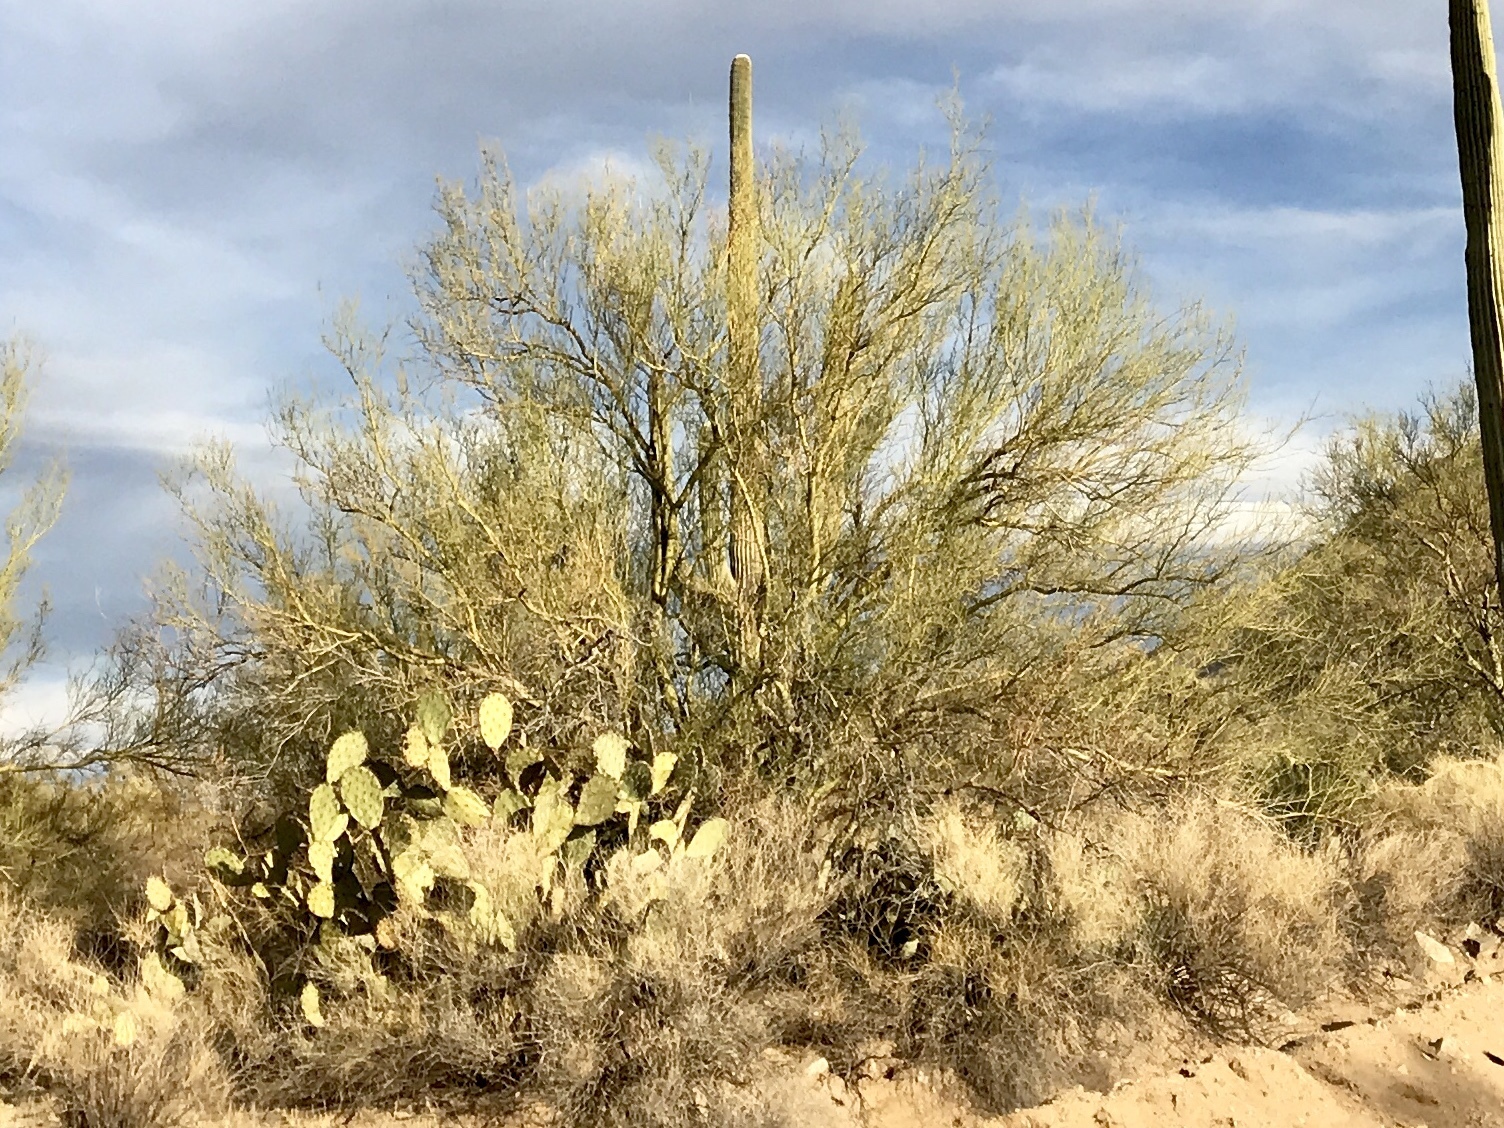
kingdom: Plantae
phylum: Tracheophyta
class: Magnoliopsida
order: Fabales
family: Fabaceae
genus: Parkinsonia
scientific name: Parkinsonia microphylla
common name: Yellow paloverde
